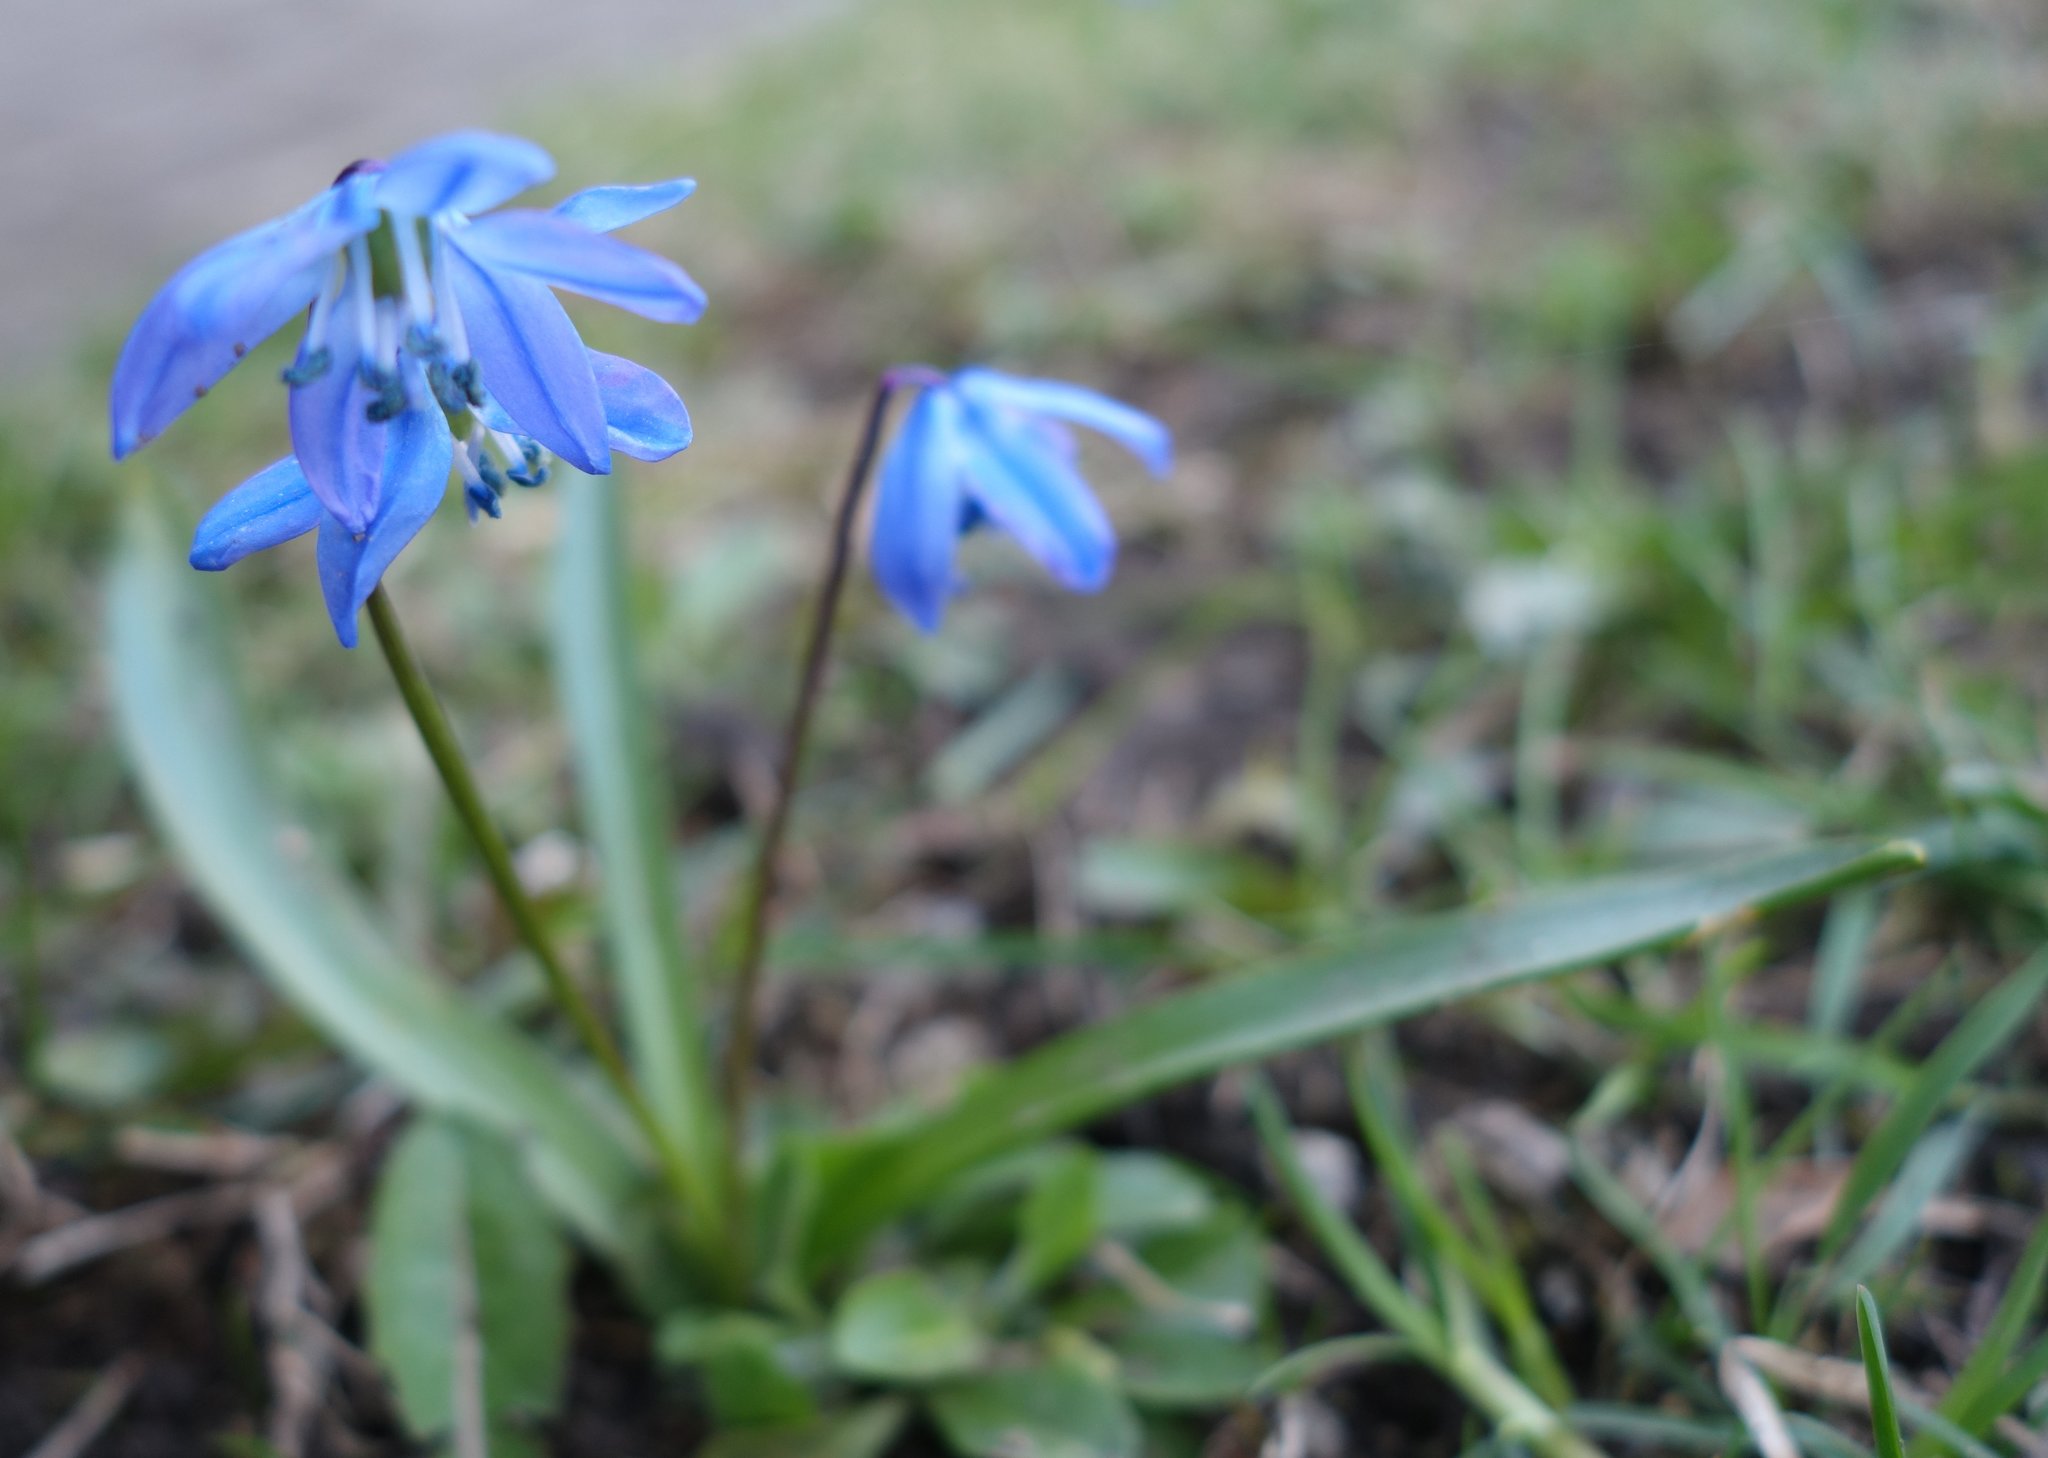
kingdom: Plantae
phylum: Tracheophyta
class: Liliopsida
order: Asparagales
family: Asparagaceae
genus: Scilla
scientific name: Scilla siberica
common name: Siberian squill
